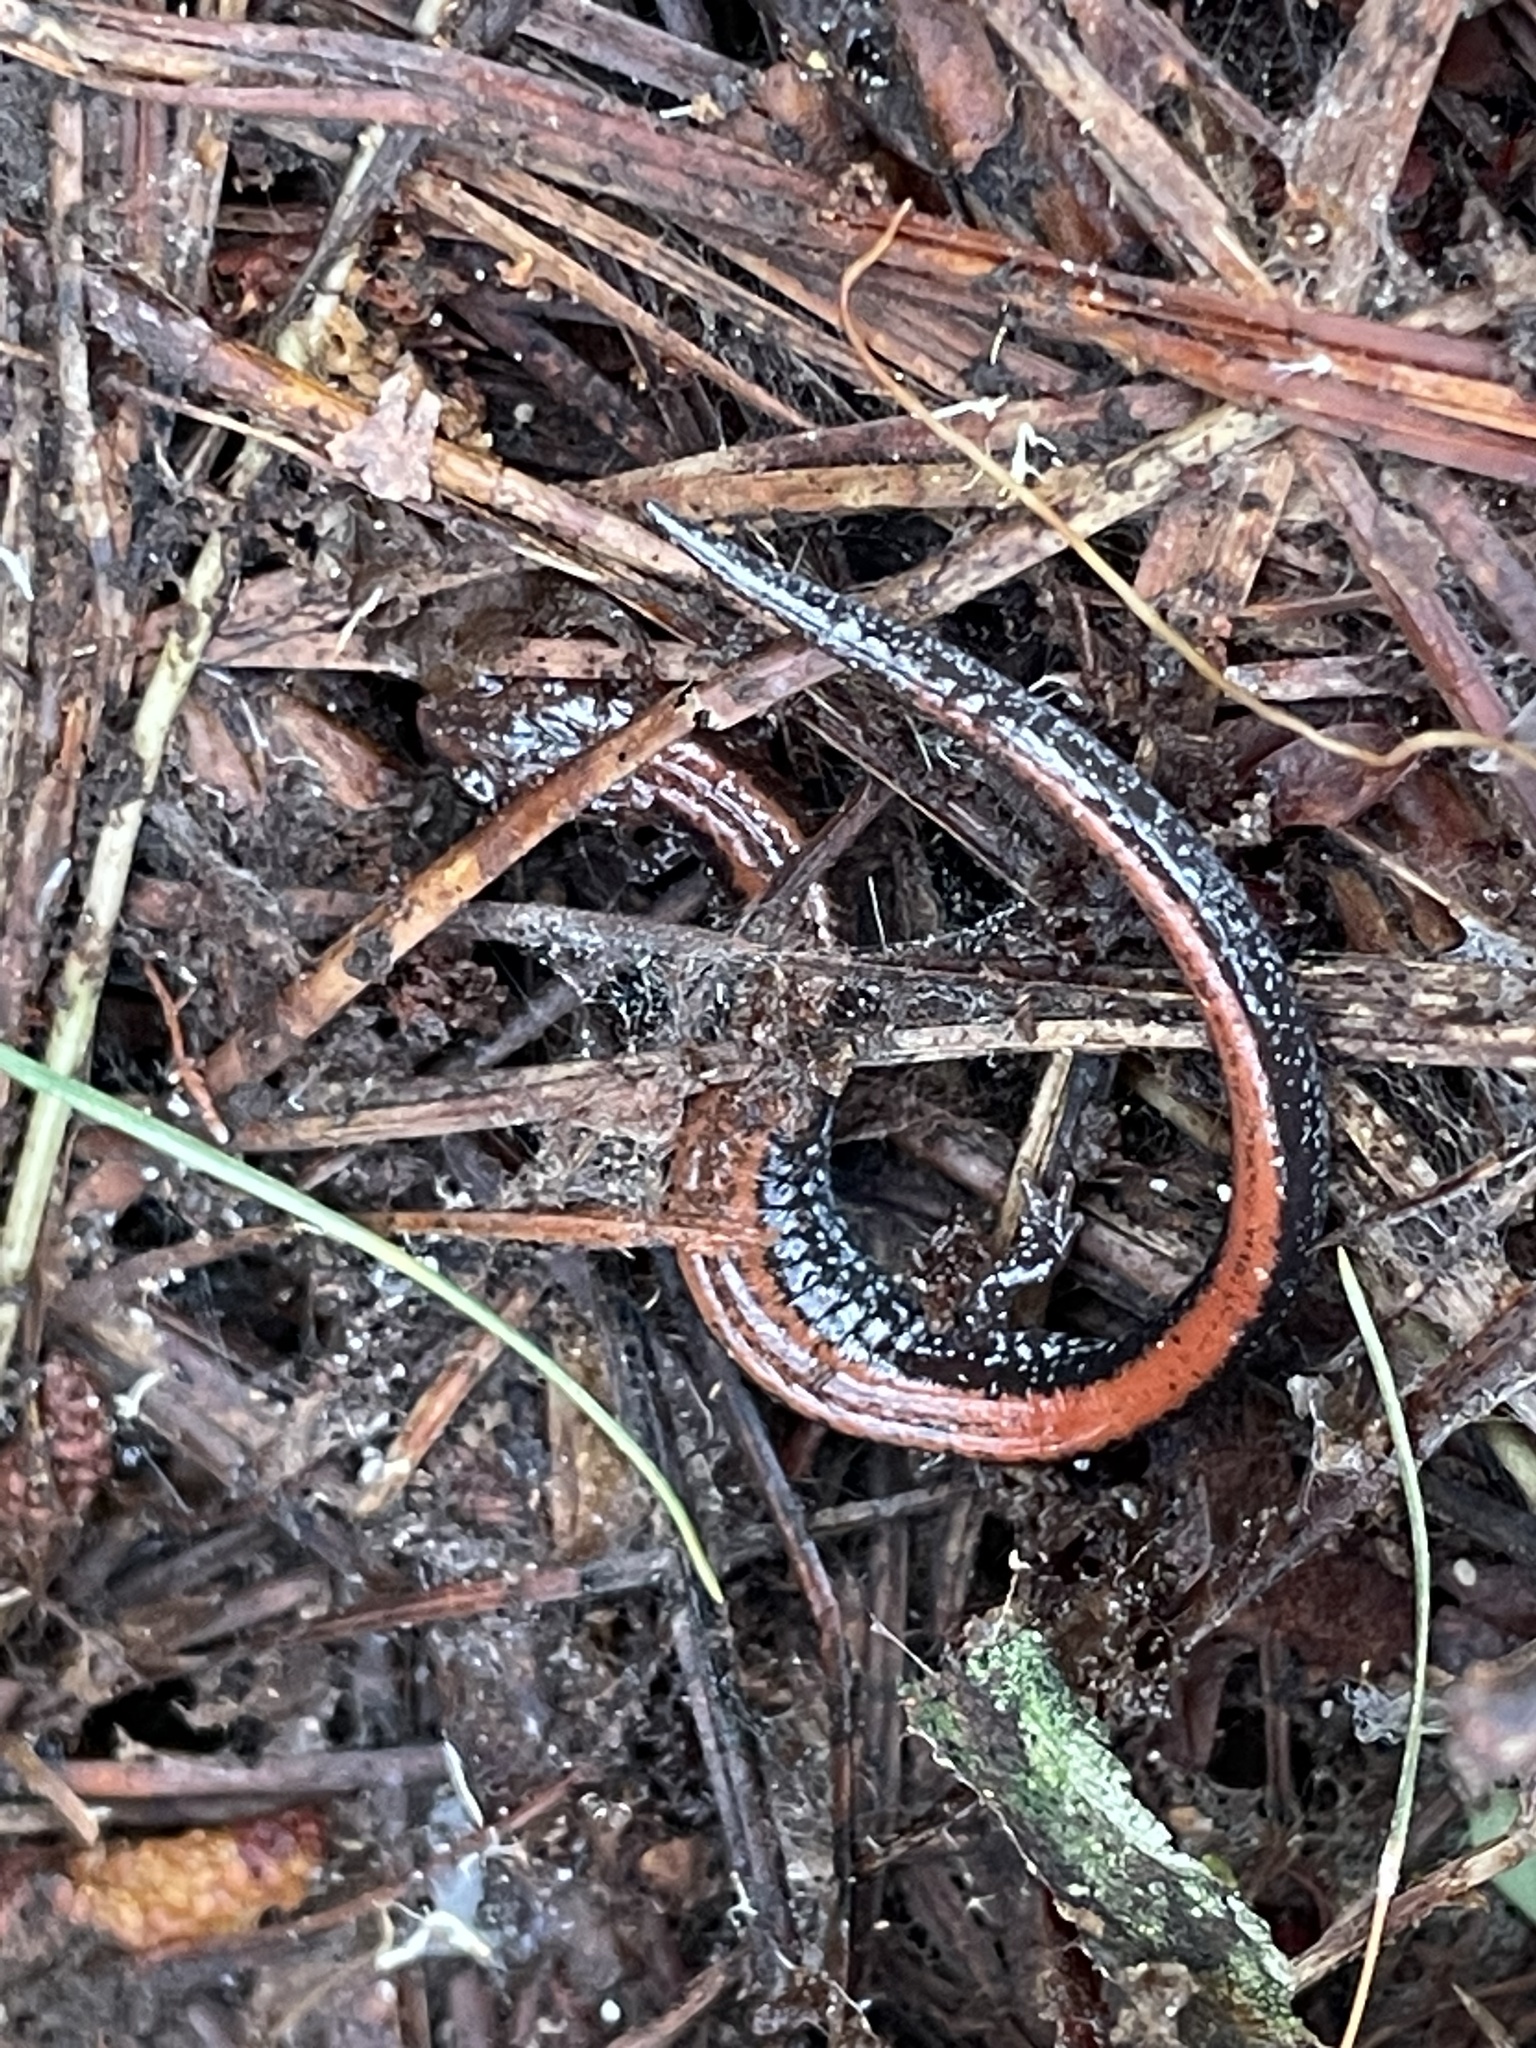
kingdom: Animalia
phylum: Chordata
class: Amphibia
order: Caudata
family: Plethodontidae
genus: Plethodon
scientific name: Plethodon cinereus
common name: Redback salamander
